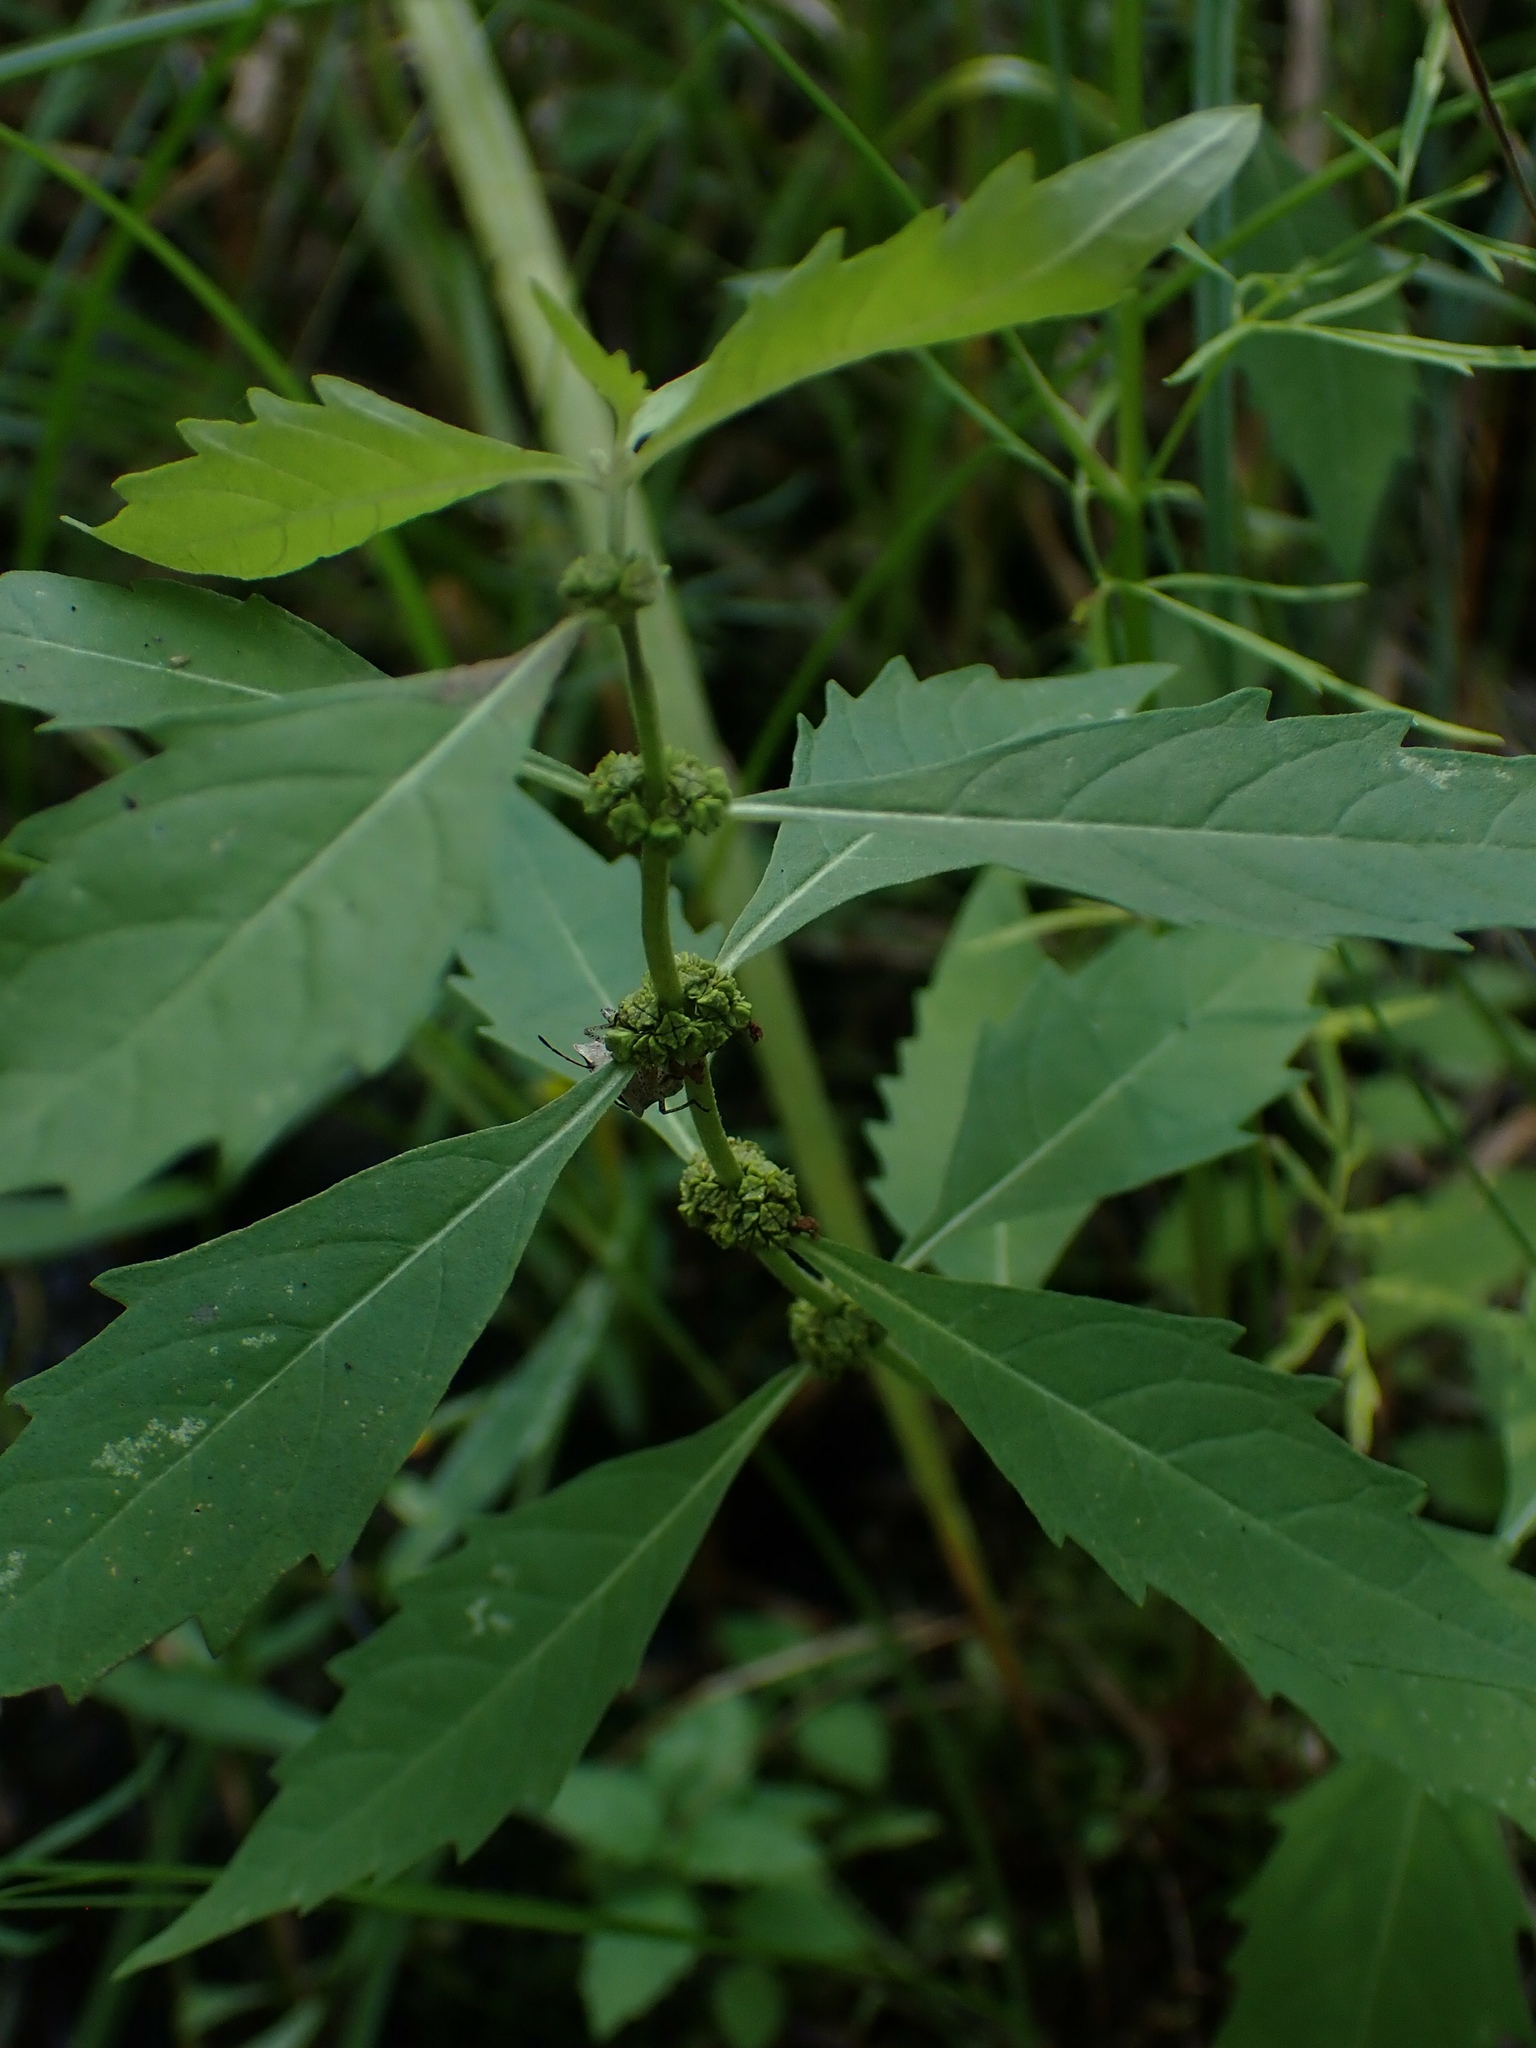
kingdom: Plantae
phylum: Tracheophyta
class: Magnoliopsida
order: Lamiales
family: Lamiaceae
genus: Lycopus
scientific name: Lycopus uniflorus
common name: Northern bugleweed
